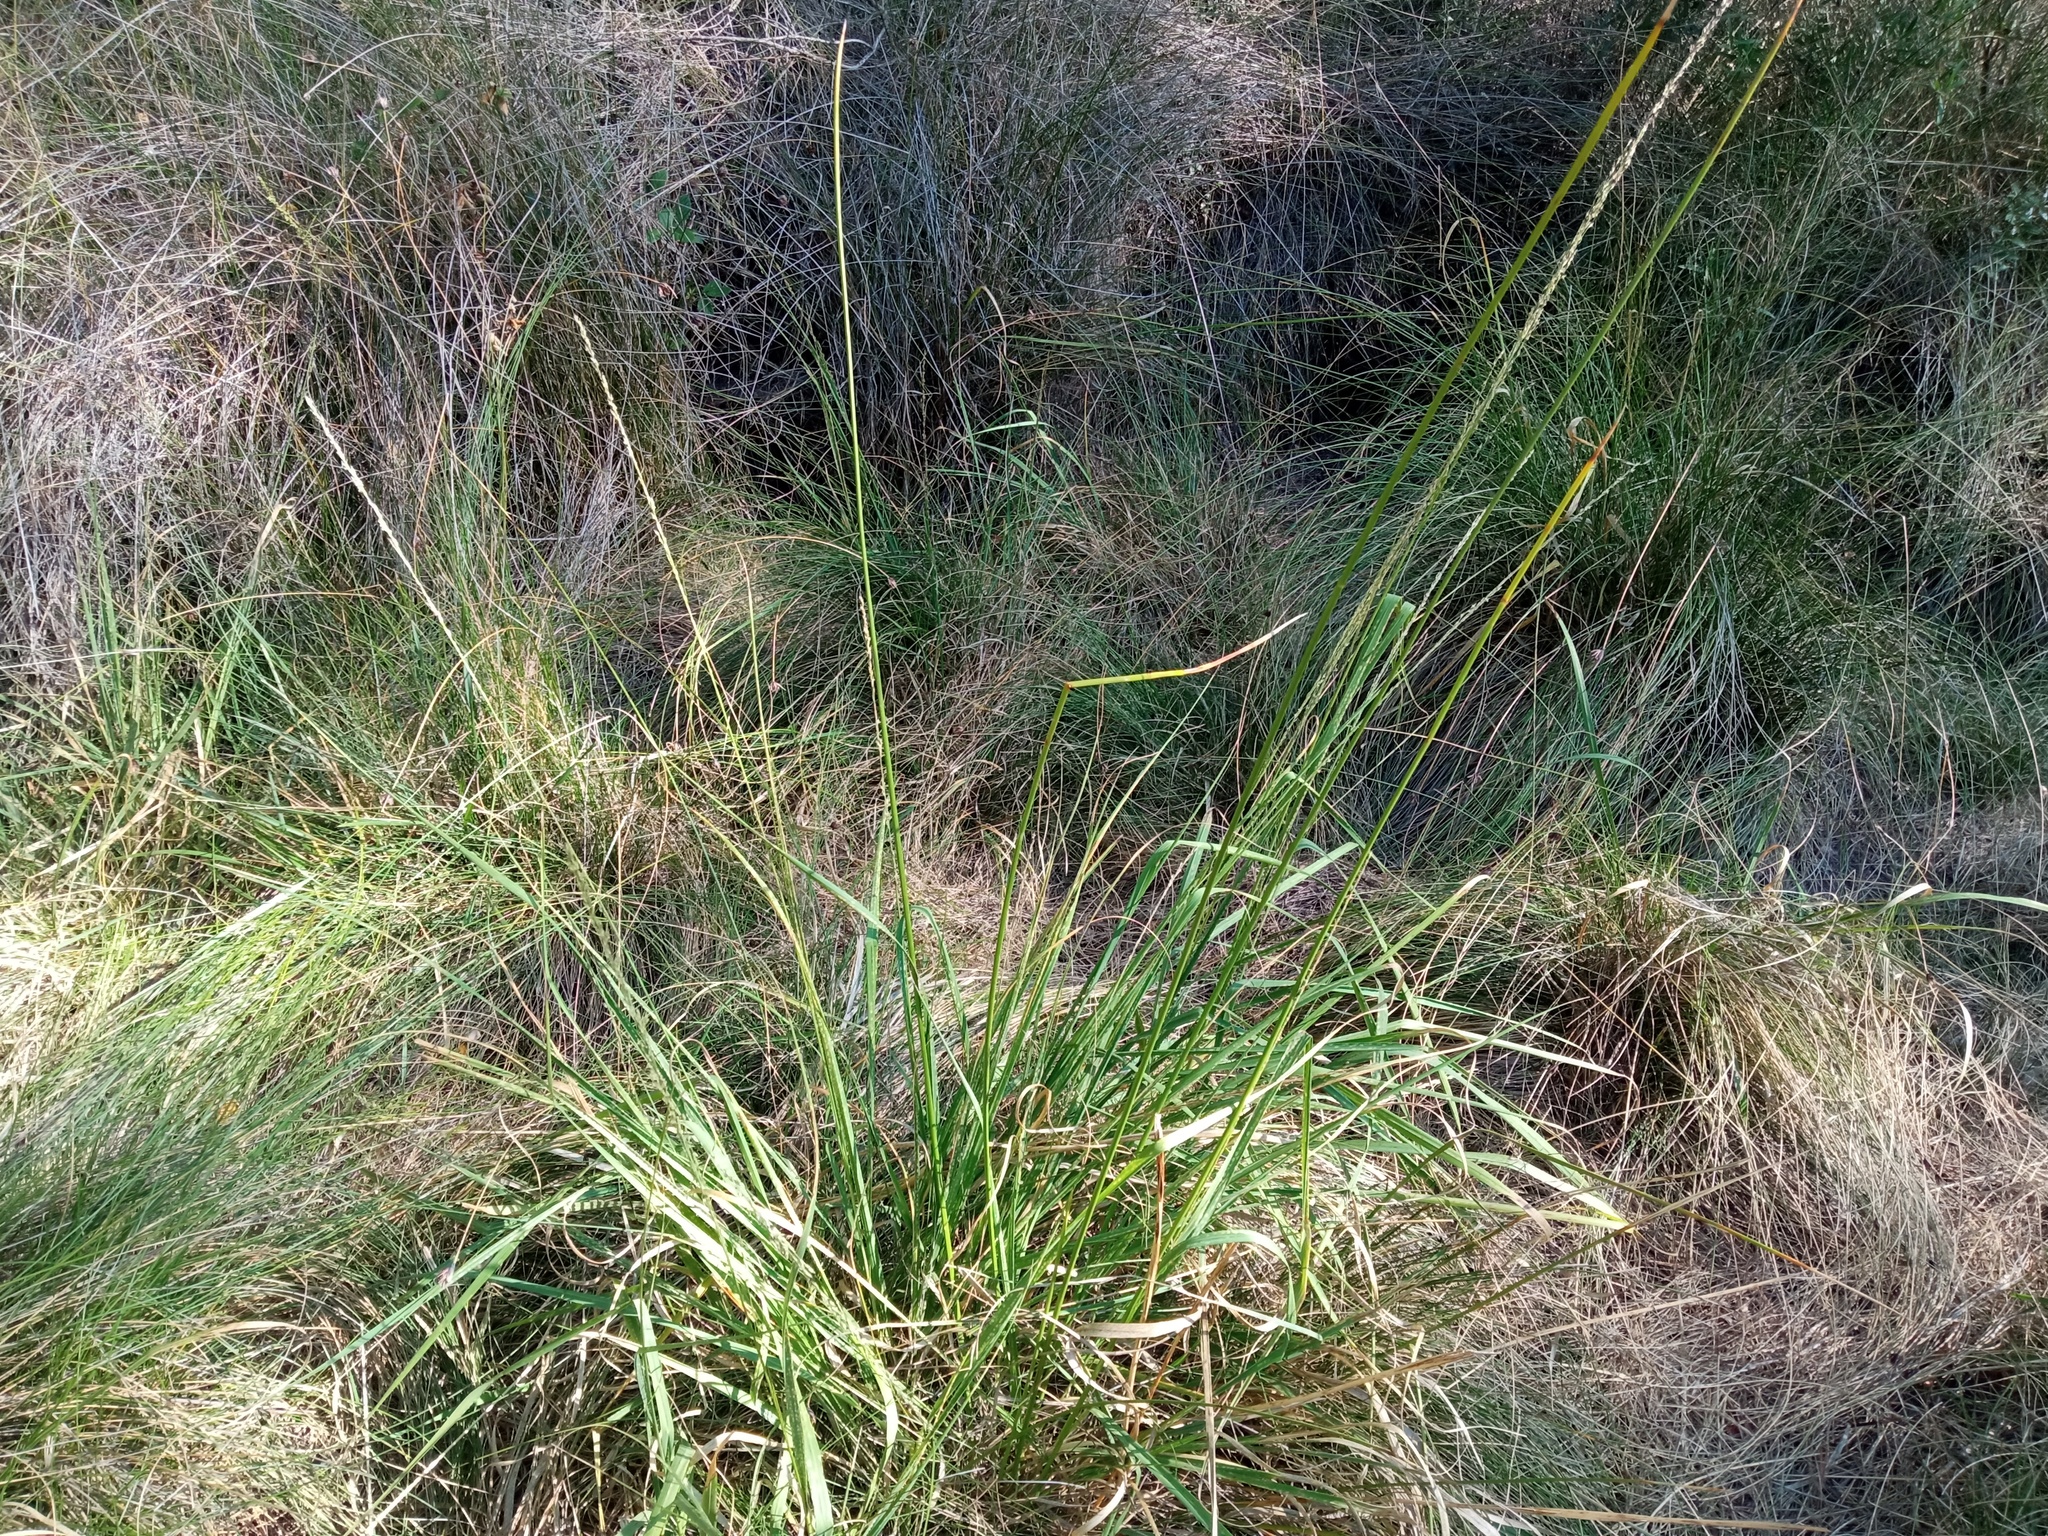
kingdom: Plantae
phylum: Tracheophyta
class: Liliopsida
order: Poales
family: Poaceae
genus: Molinia
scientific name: Molinia caerulea
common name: Purple moor-grass
